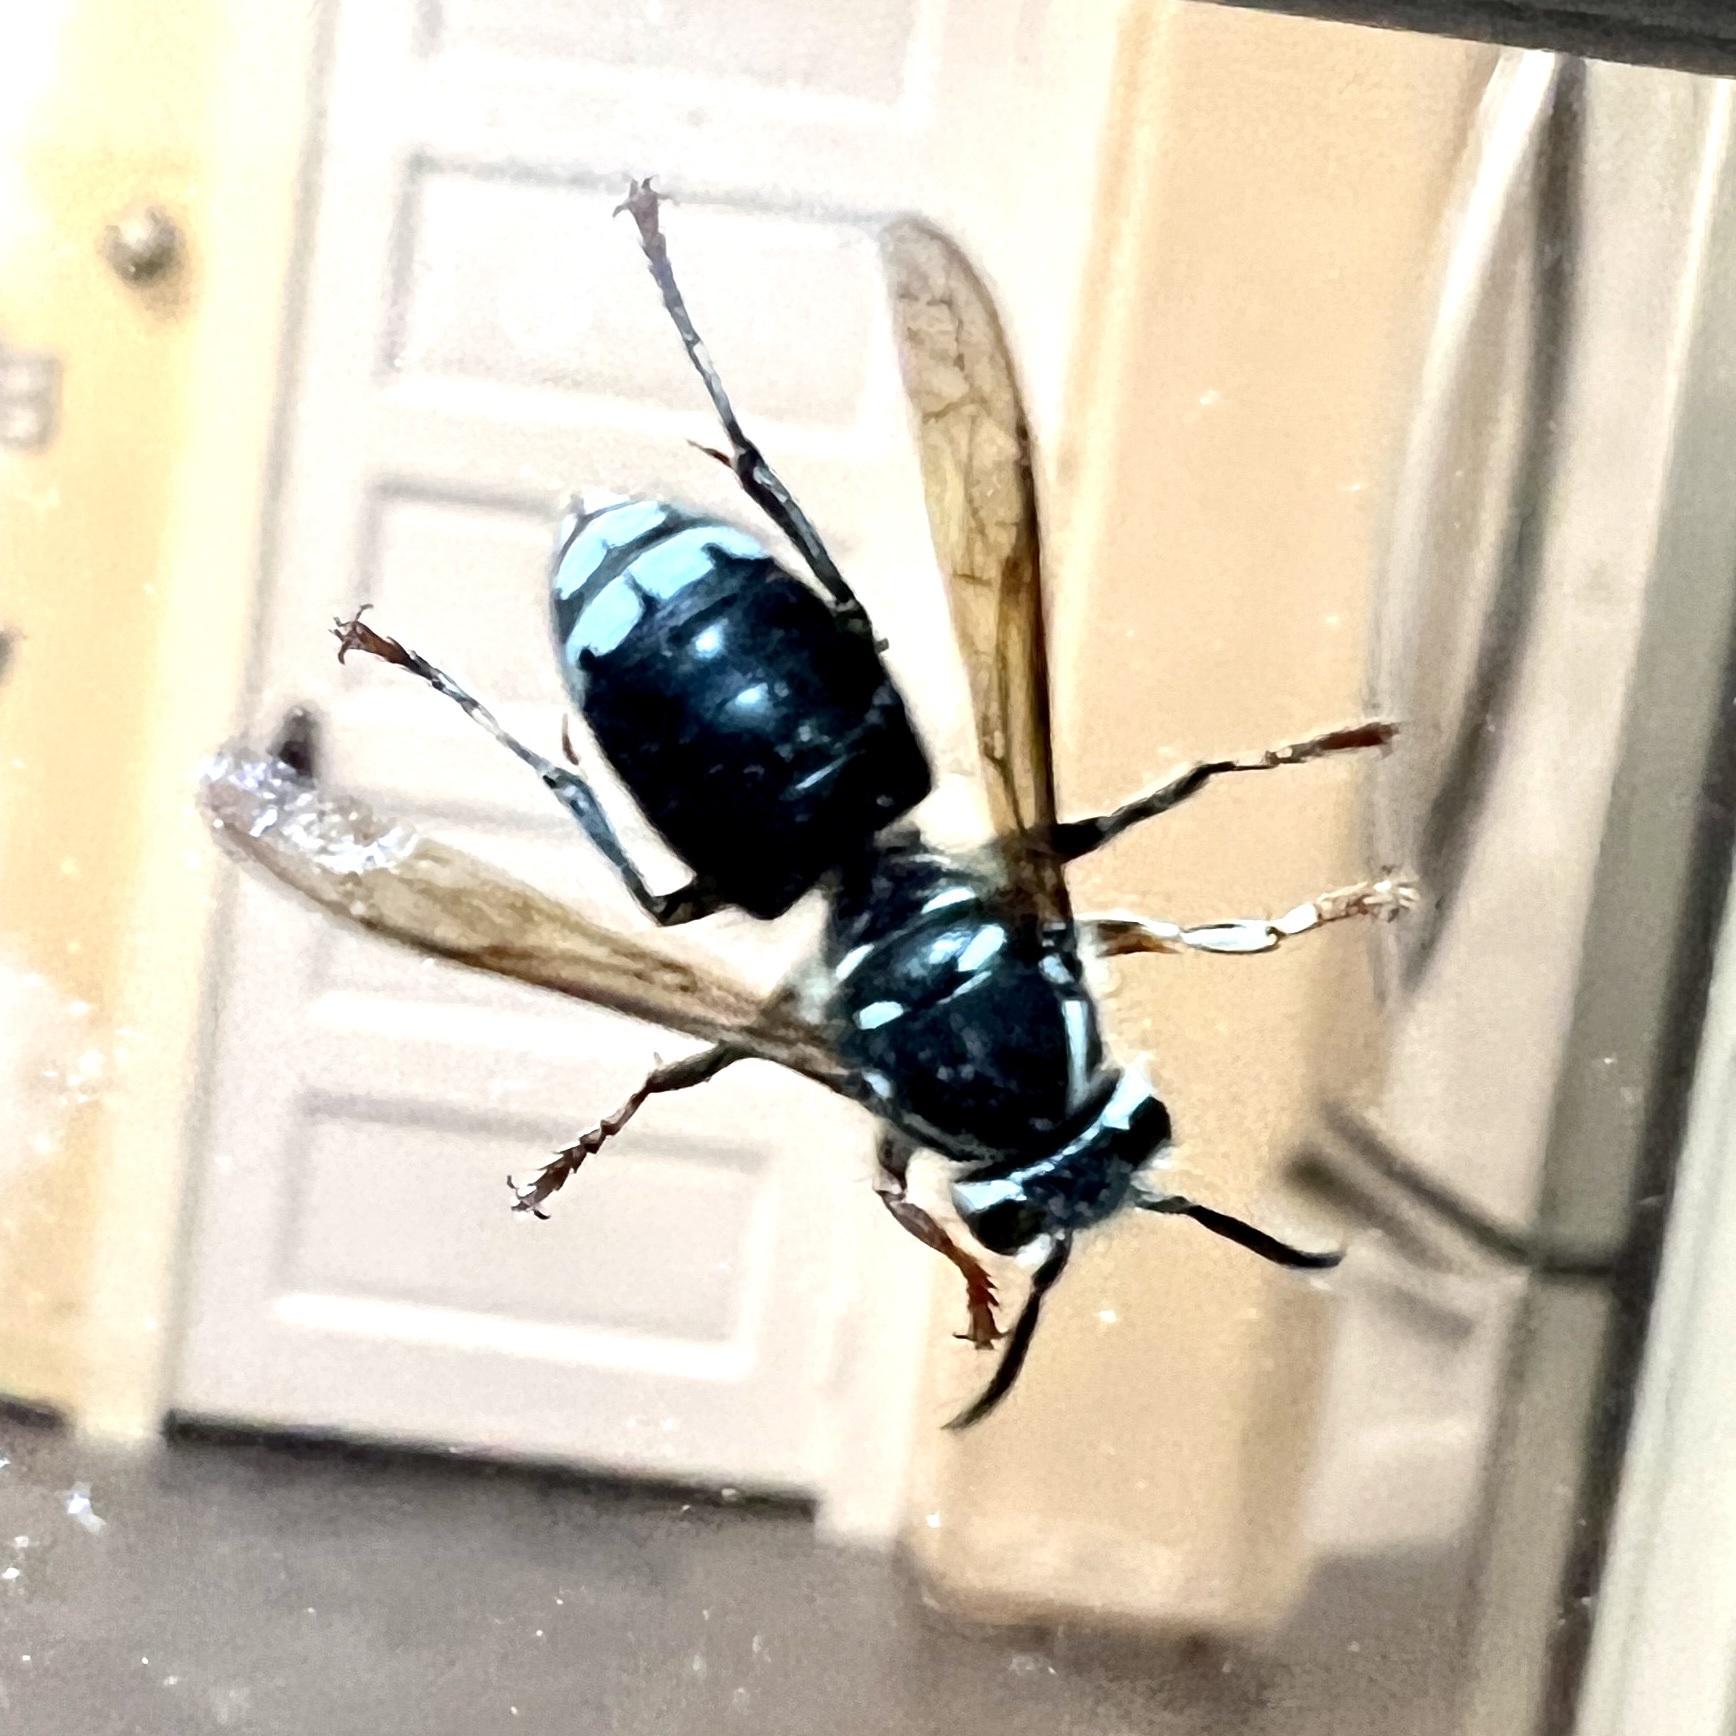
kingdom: Animalia
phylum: Arthropoda
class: Insecta
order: Hymenoptera
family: Vespidae
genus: Dolichovespula
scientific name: Dolichovespula maculata
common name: Bald-faced hornet
